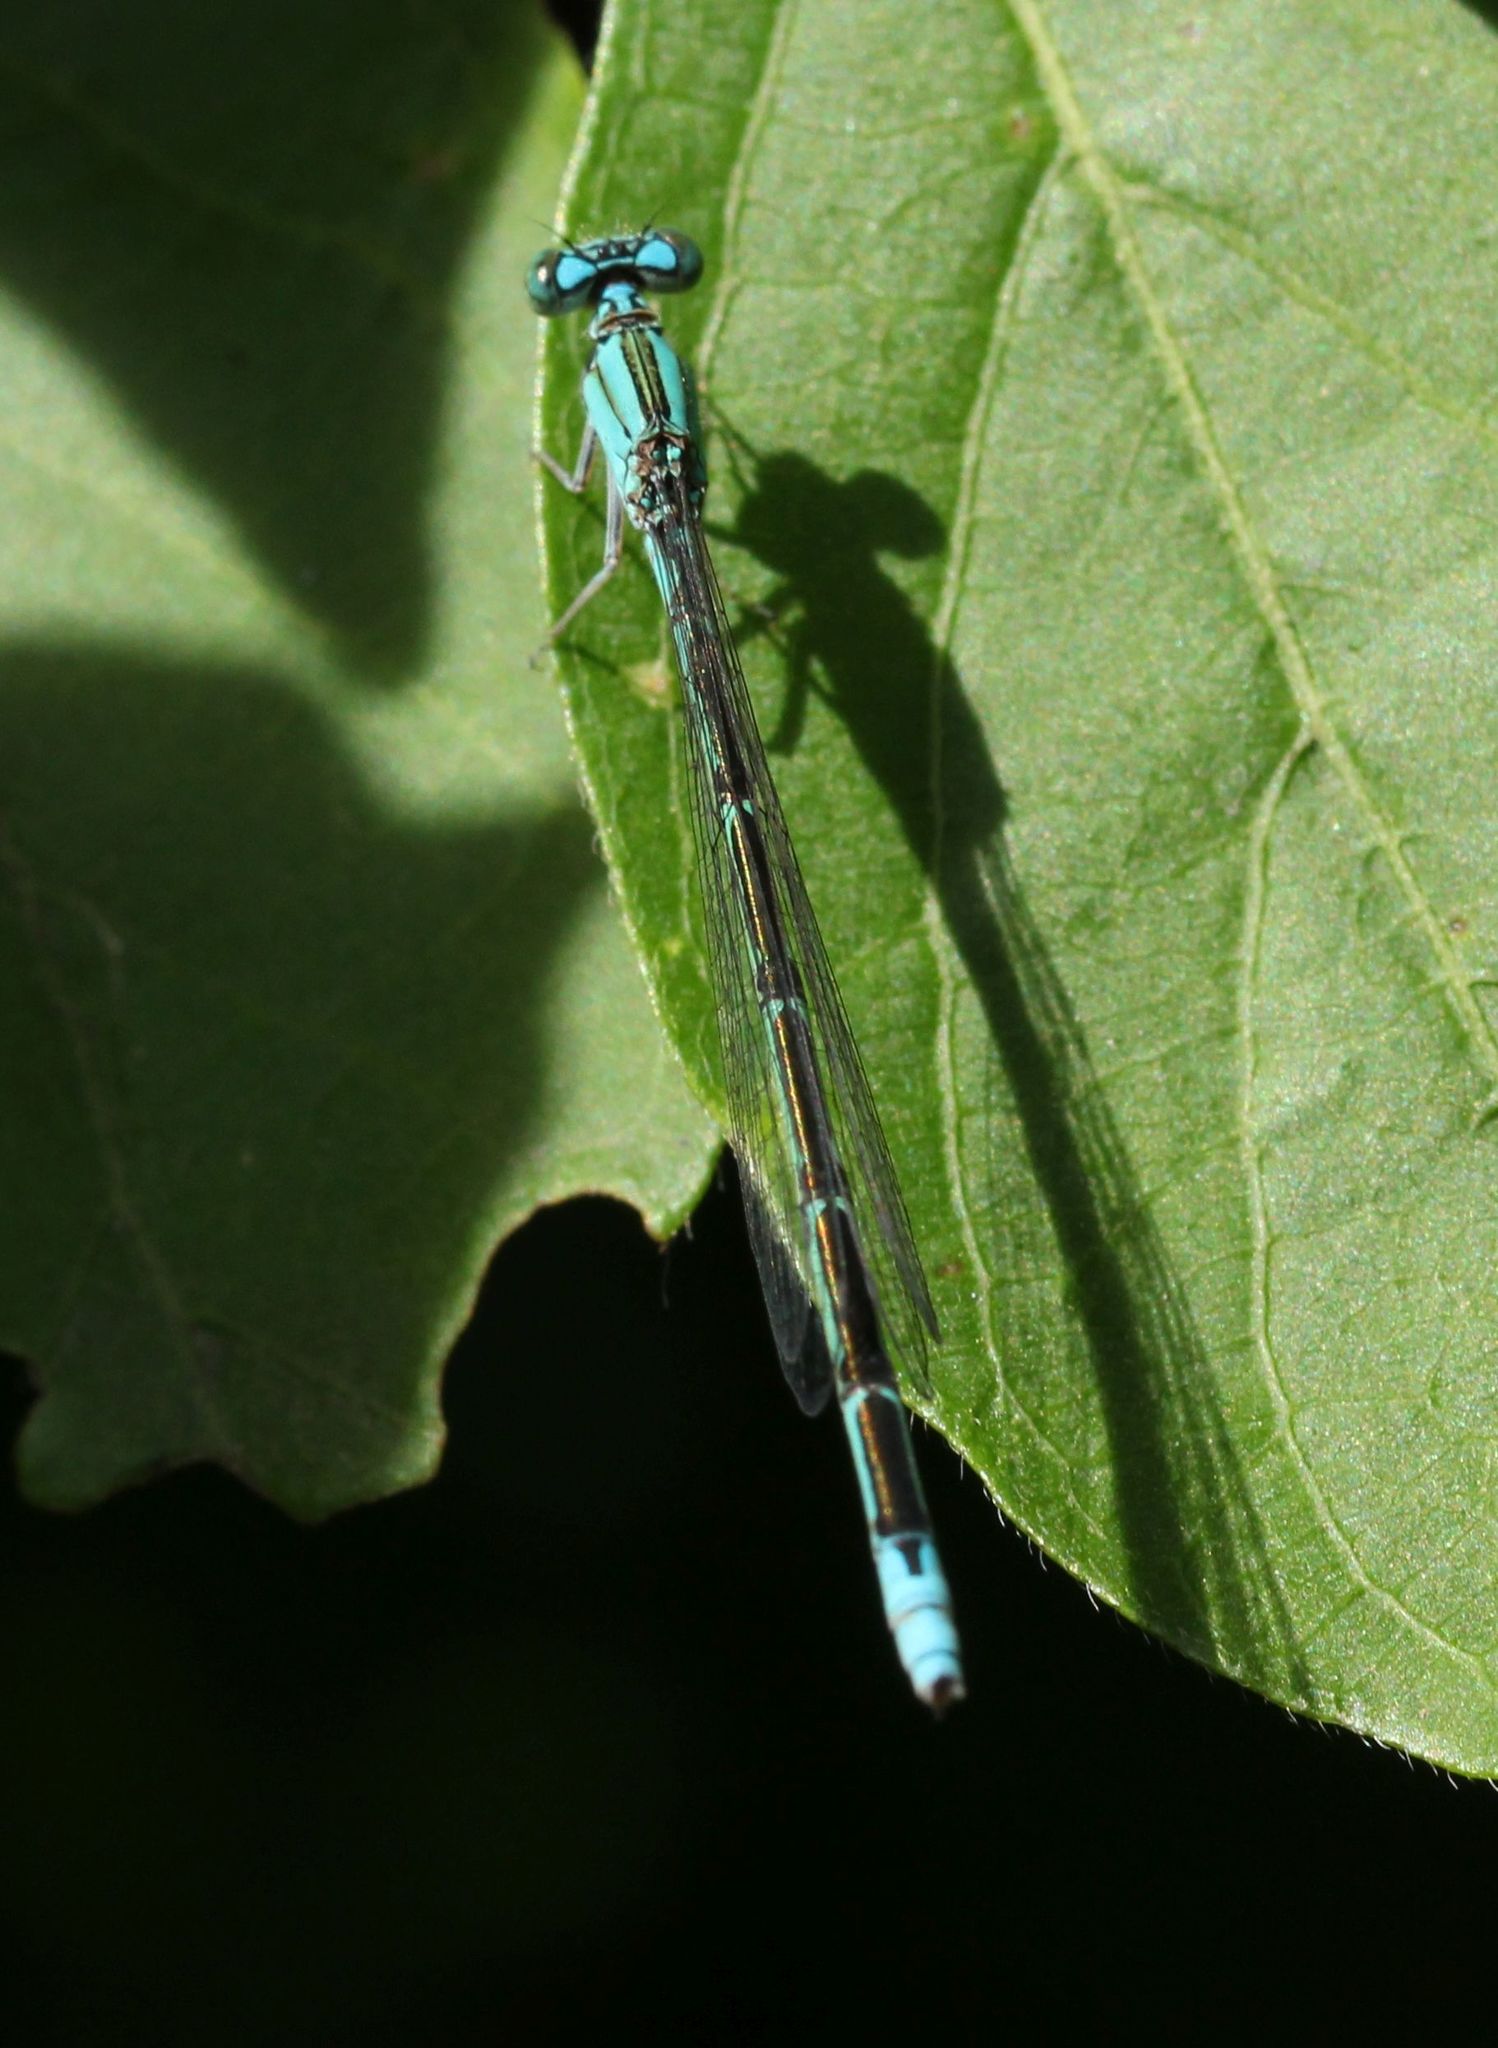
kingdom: Animalia
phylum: Arthropoda
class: Insecta
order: Odonata
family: Coenagrionidae
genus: Enallagma
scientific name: Enallagma traviatum
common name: Slender bluet
